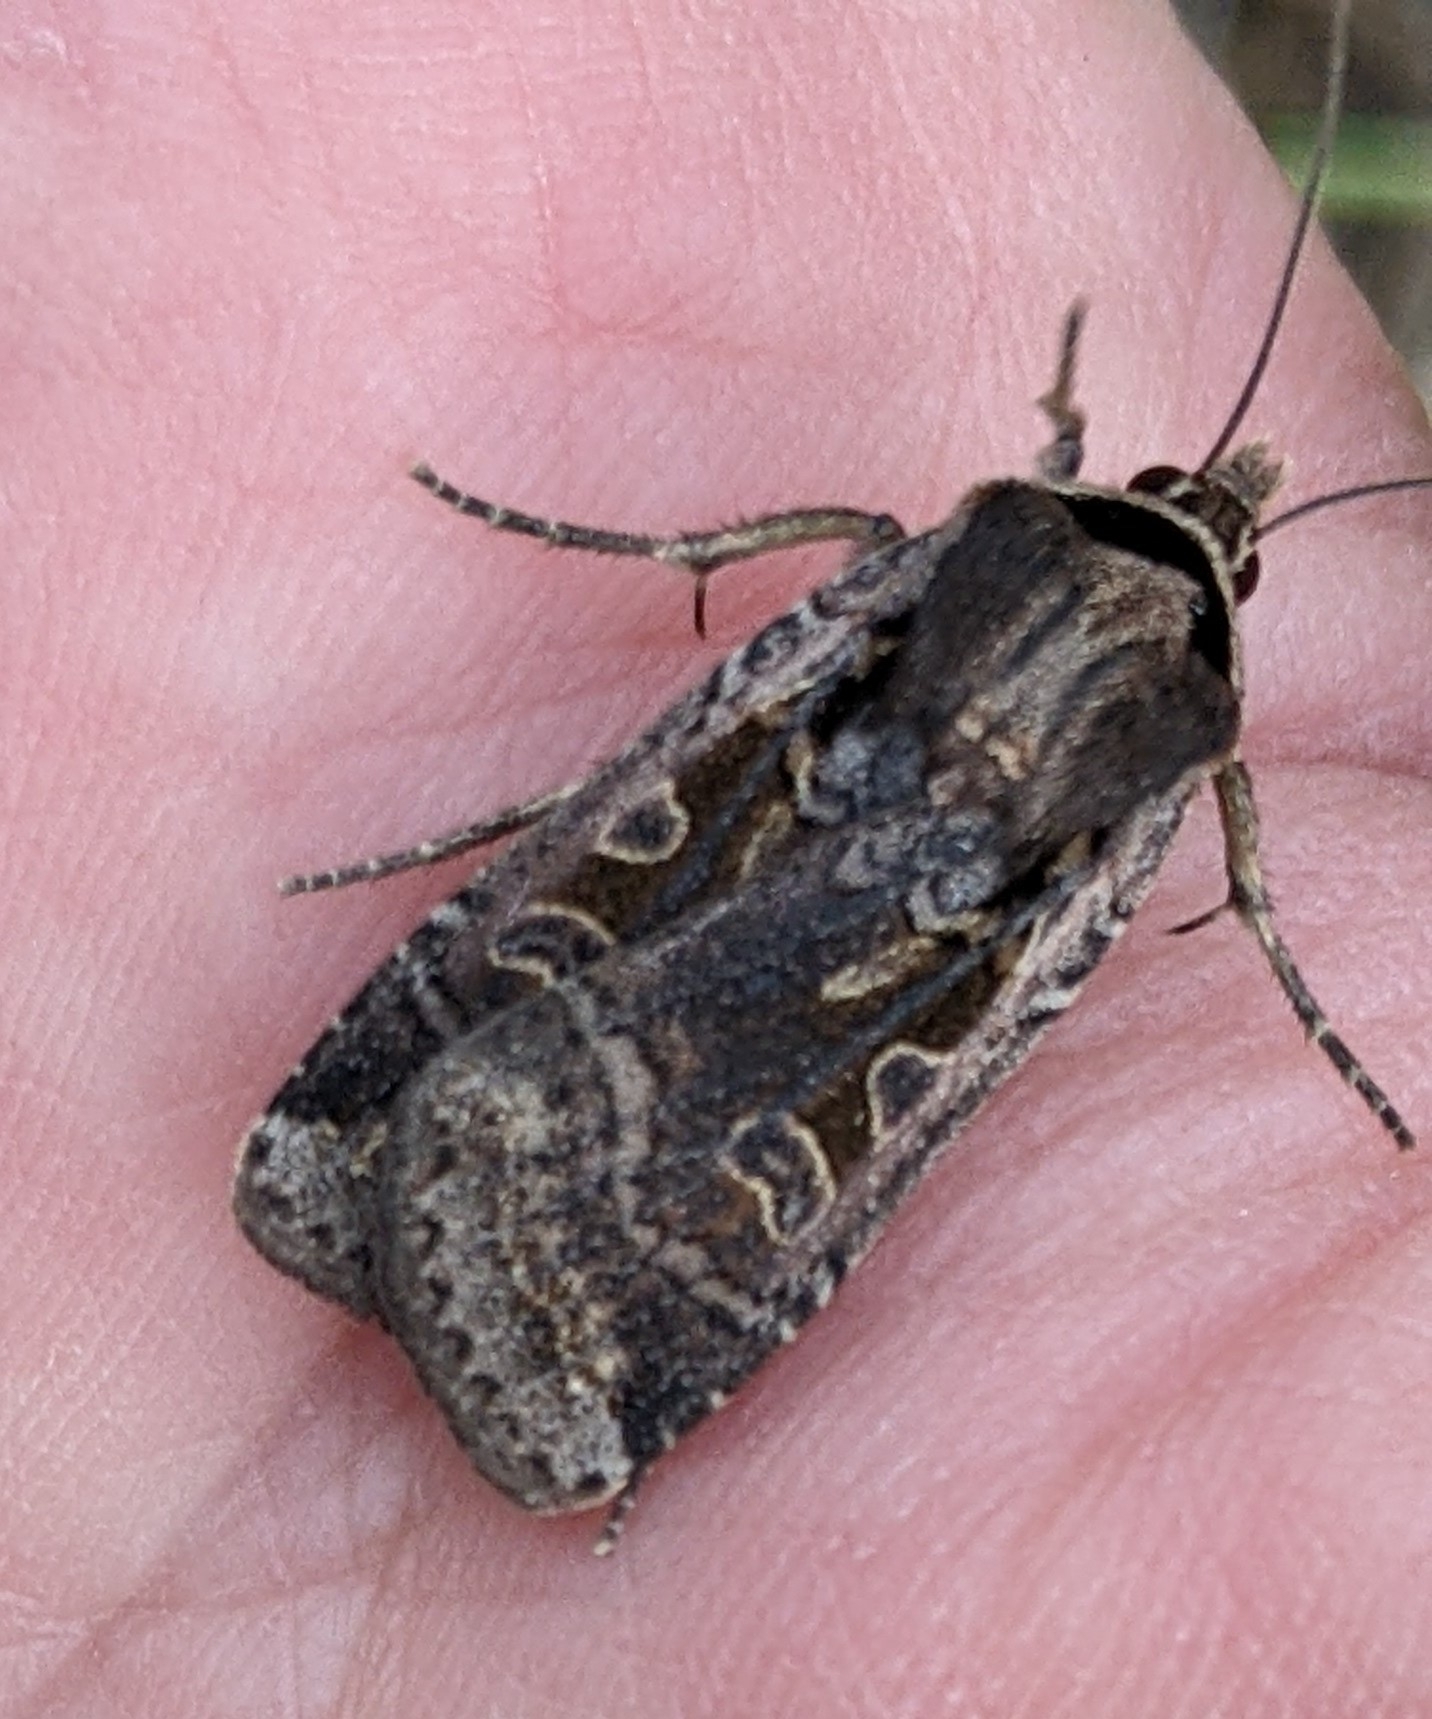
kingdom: Animalia
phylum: Arthropoda
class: Insecta
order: Lepidoptera
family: Noctuidae
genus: Parabagrotis
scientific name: Parabagrotis formalis
